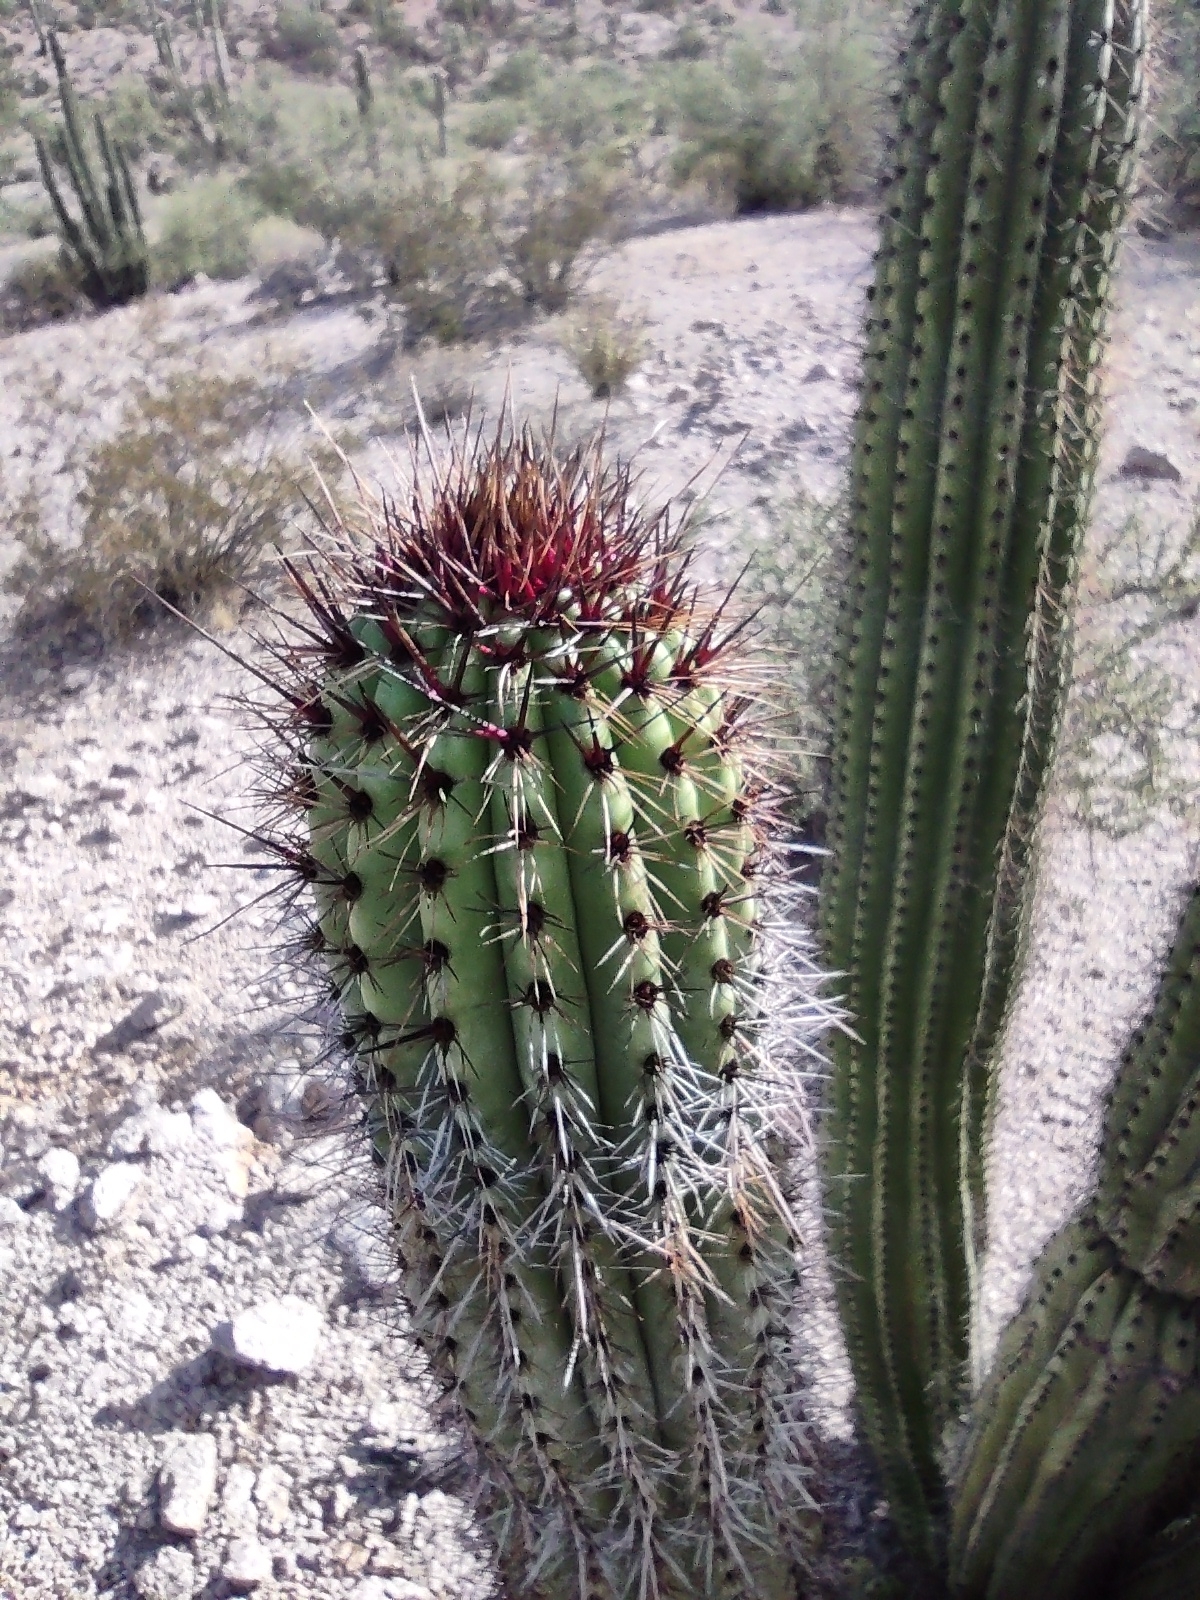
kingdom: Plantae
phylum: Tracheophyta
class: Magnoliopsida
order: Caryophyllales
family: Cactaceae
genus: Stenocereus
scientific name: Stenocereus thurberi
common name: Organ pipe cactus
